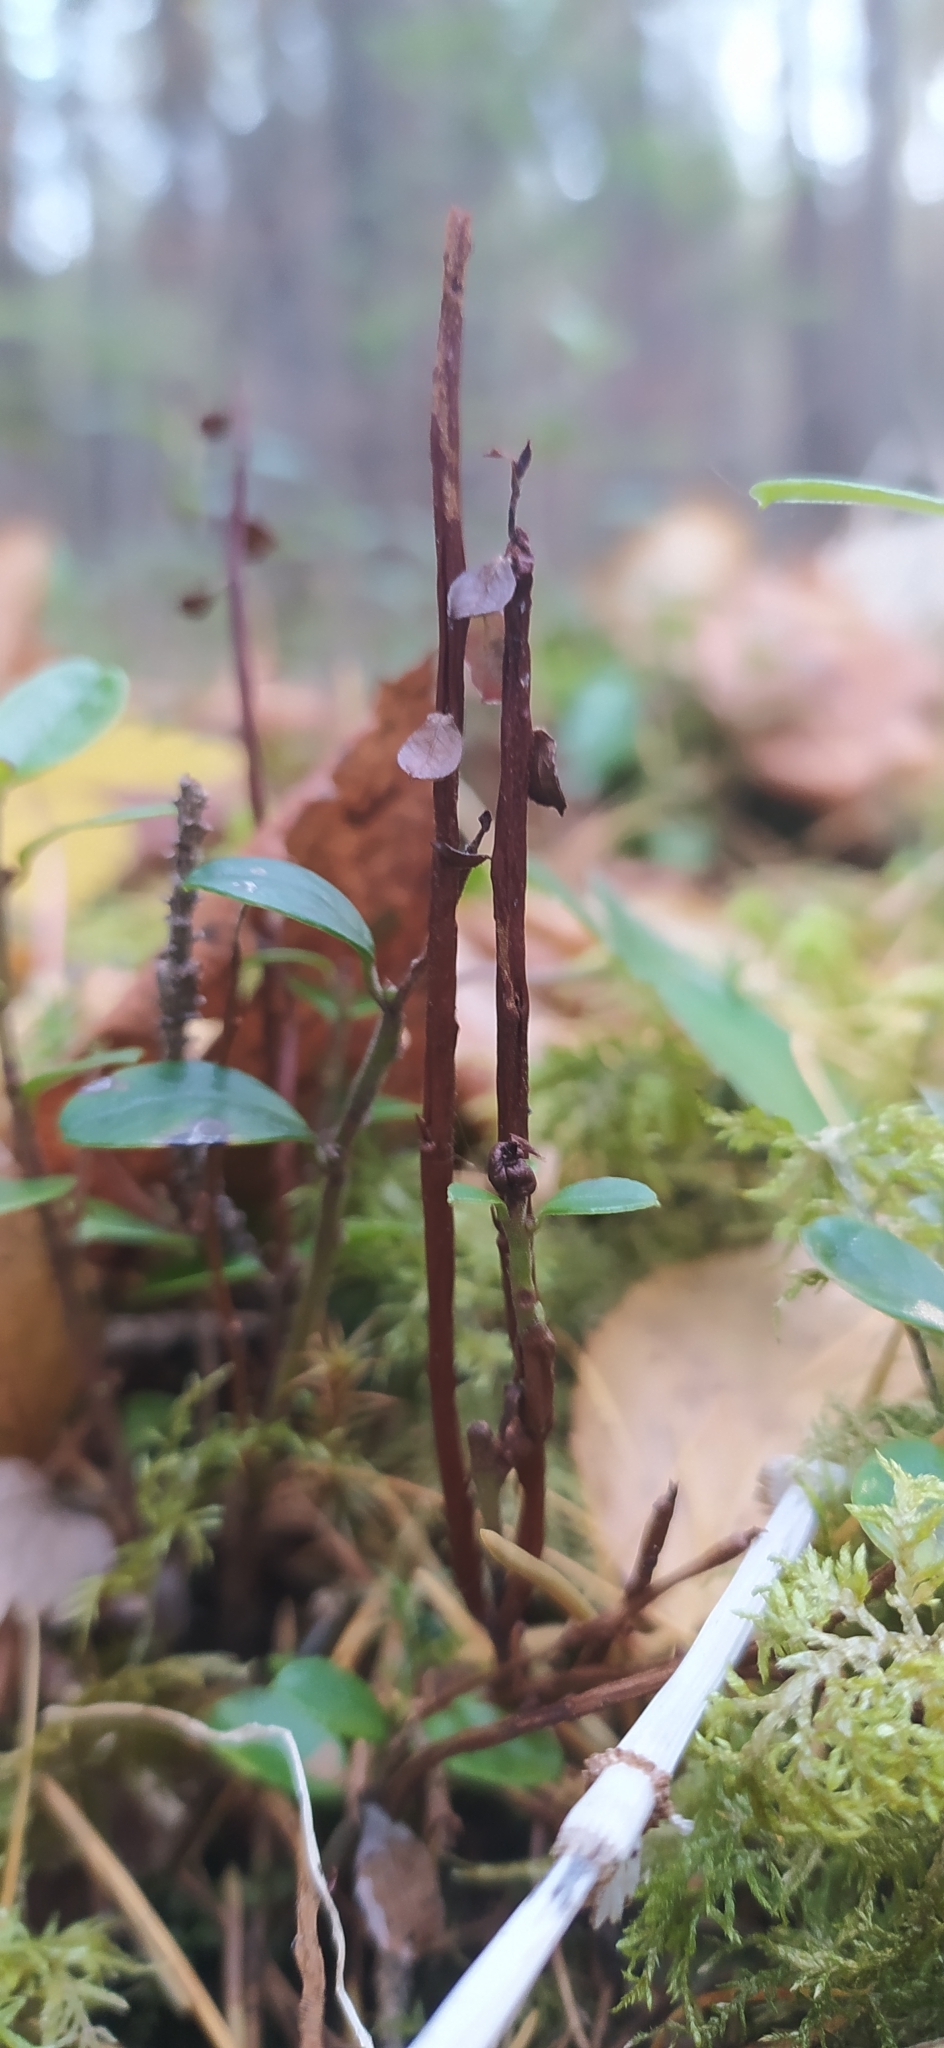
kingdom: Fungi
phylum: Basidiomycota
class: Pucciniomycetes
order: Pucciniales
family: Pucciniastraceae
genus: Calyptospora
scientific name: Calyptospora columnaris
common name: Huckleberry broom rust fungus
